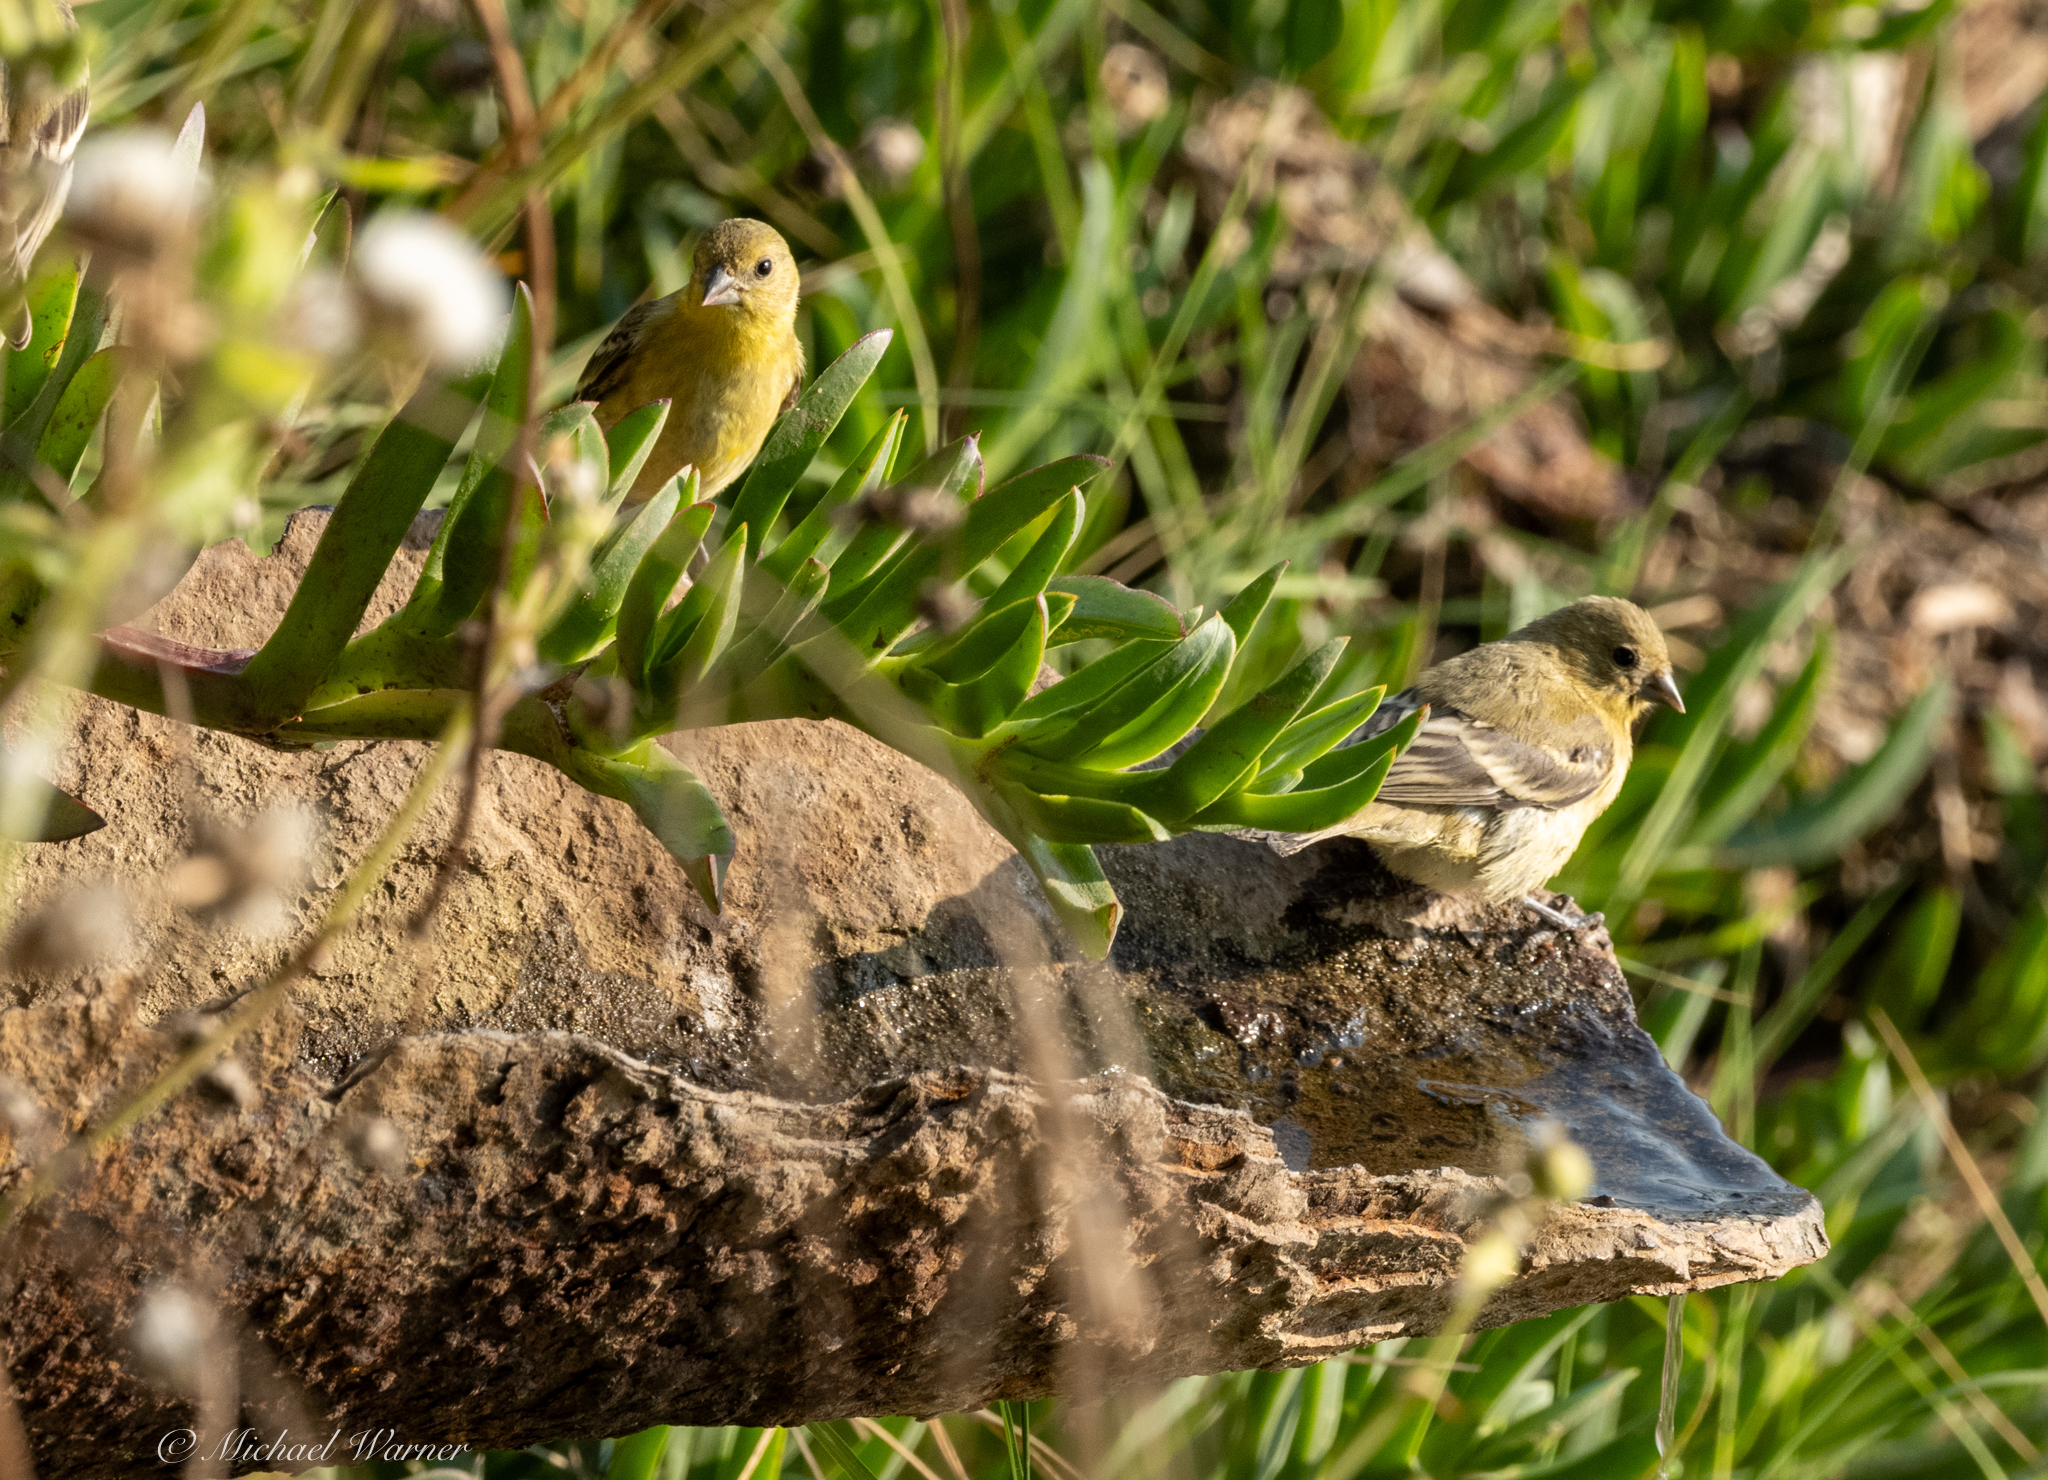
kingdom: Animalia
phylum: Chordata
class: Aves
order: Passeriformes
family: Fringillidae
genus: Spinus
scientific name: Spinus psaltria
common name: Lesser goldfinch
